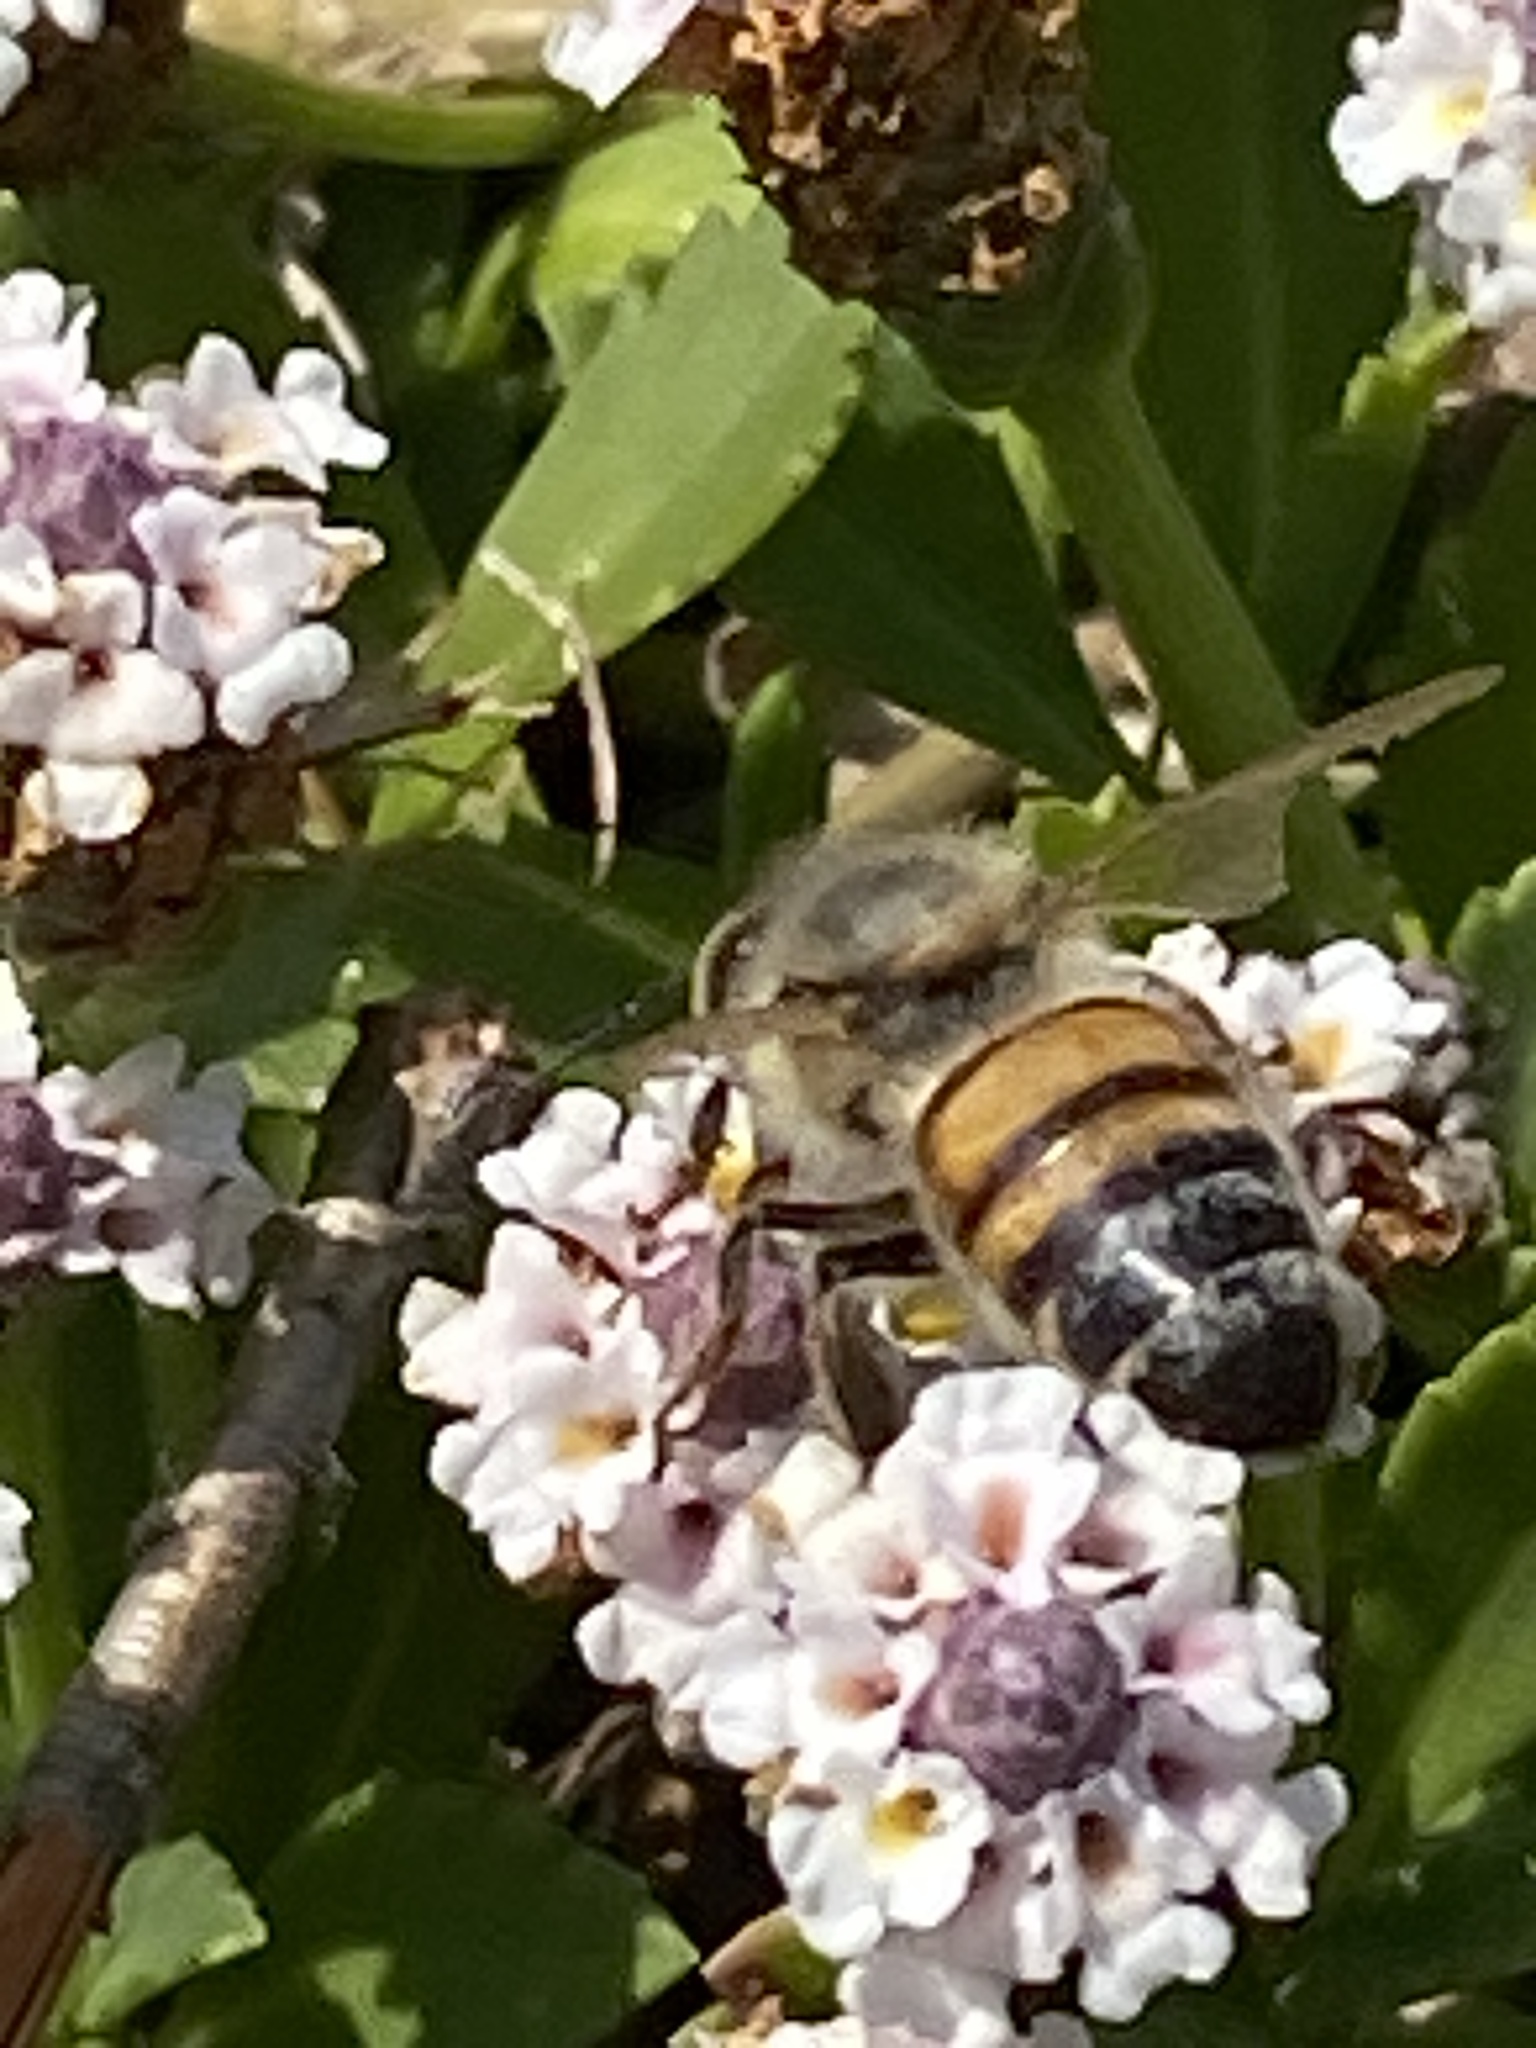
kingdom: Animalia
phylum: Arthropoda
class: Insecta
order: Hymenoptera
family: Apidae
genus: Apis
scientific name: Apis mellifera
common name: Honey bee
